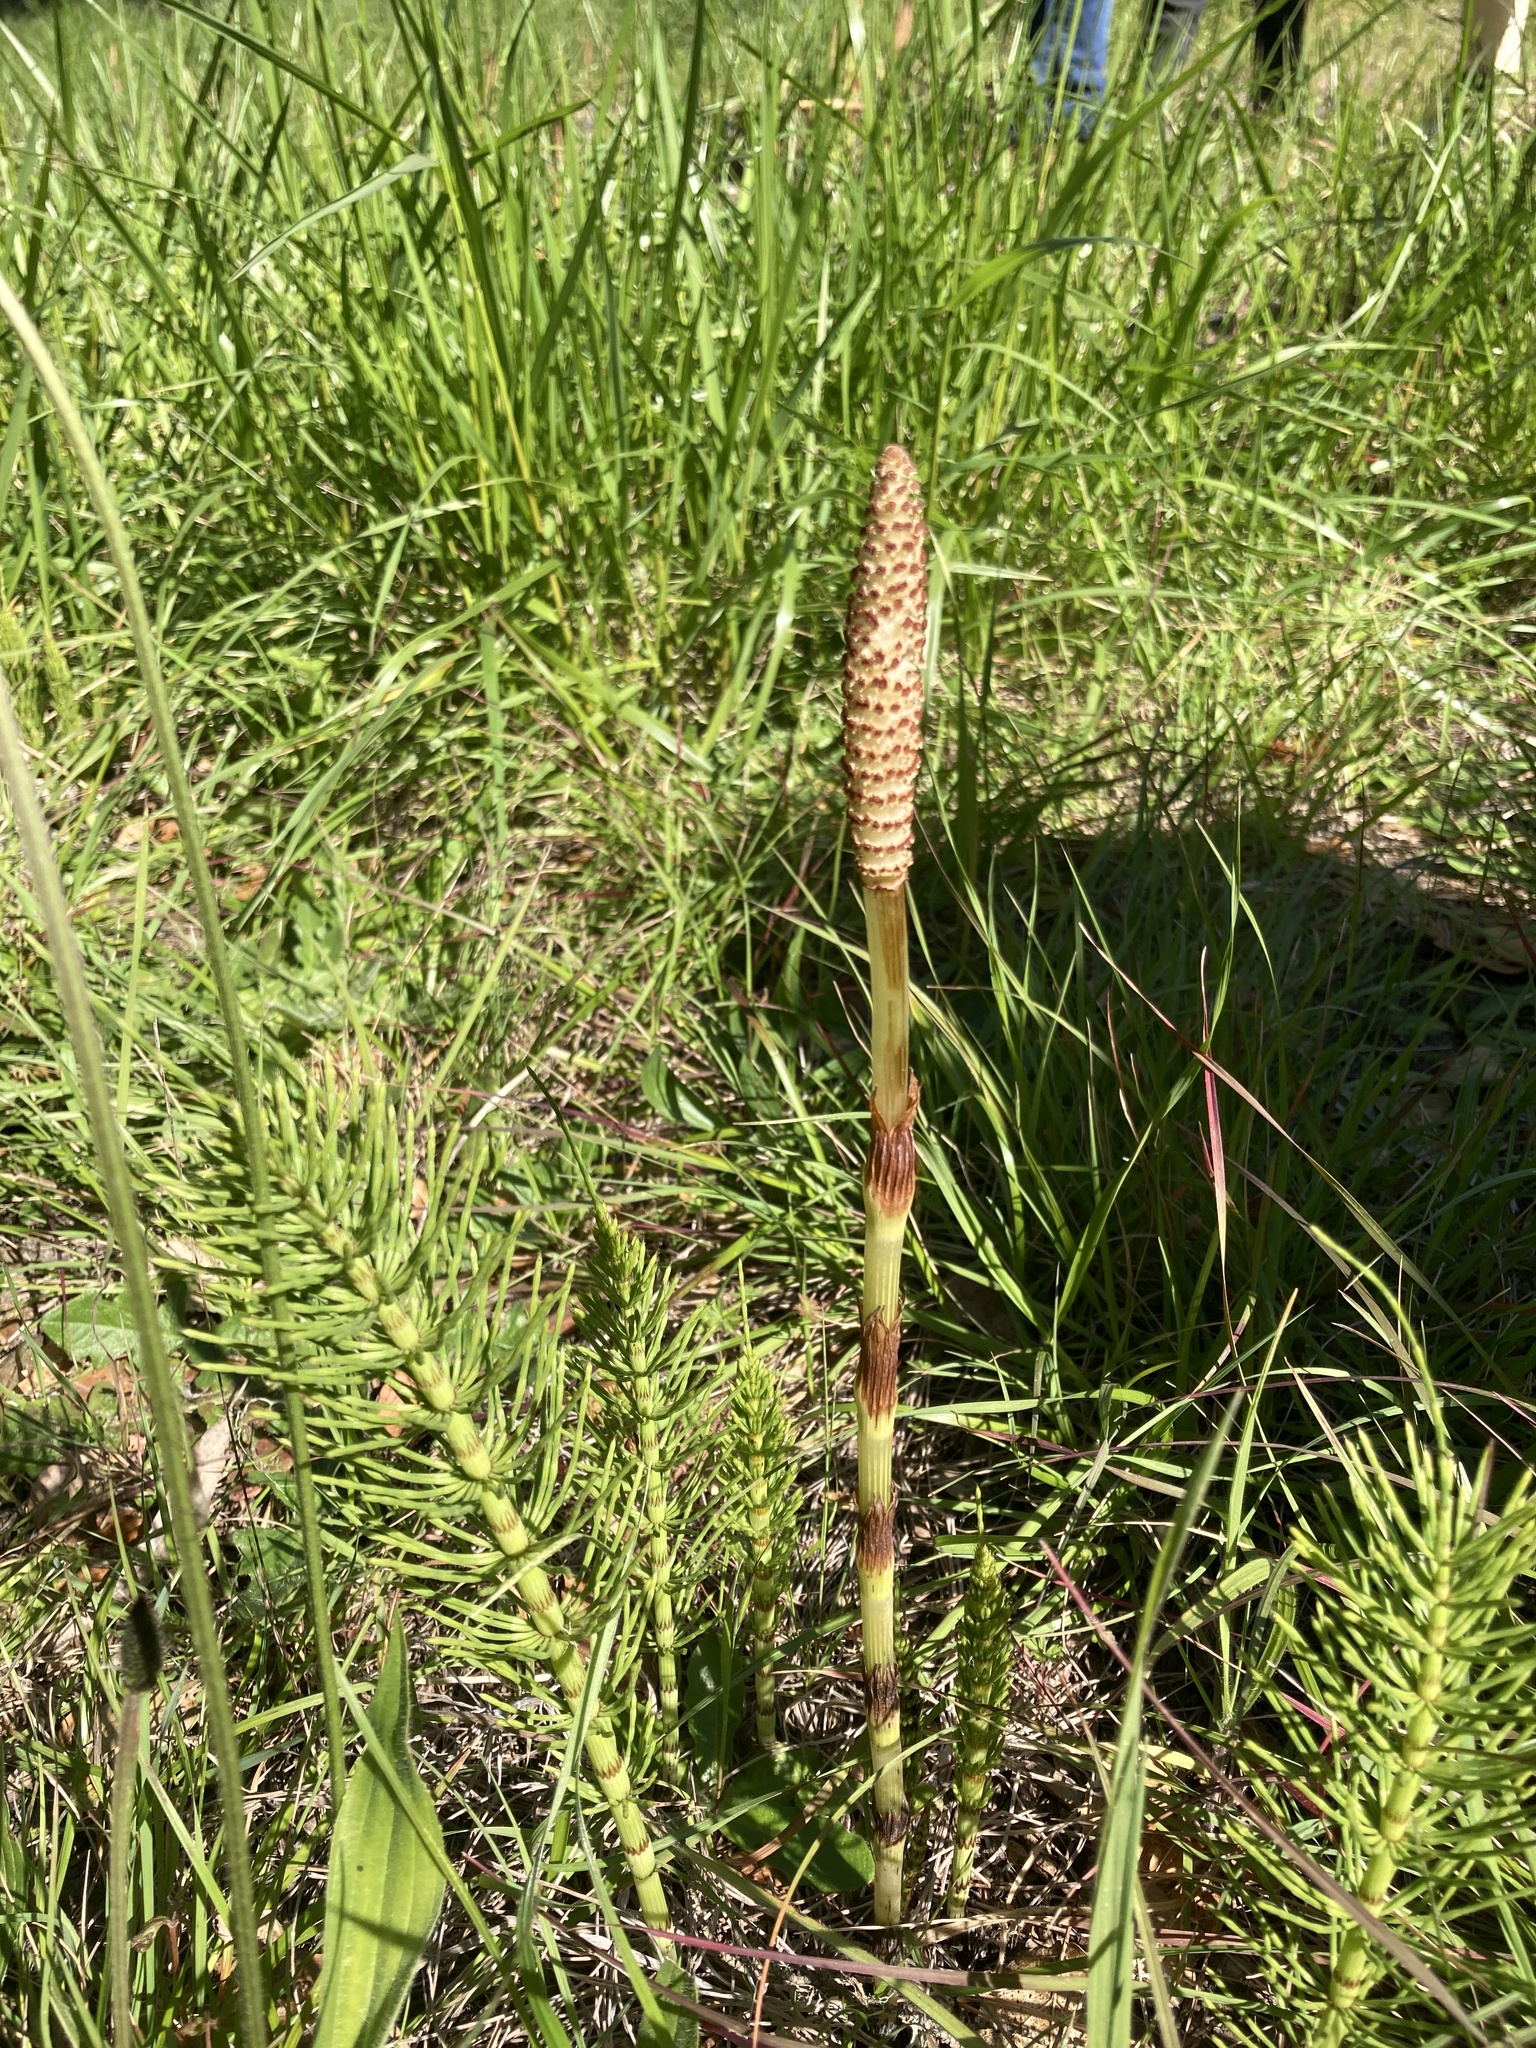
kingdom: Plantae
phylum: Tracheophyta
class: Polypodiopsida
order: Equisetales
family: Equisetaceae
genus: Equisetum
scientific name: Equisetum telmateia
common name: Great horsetail
